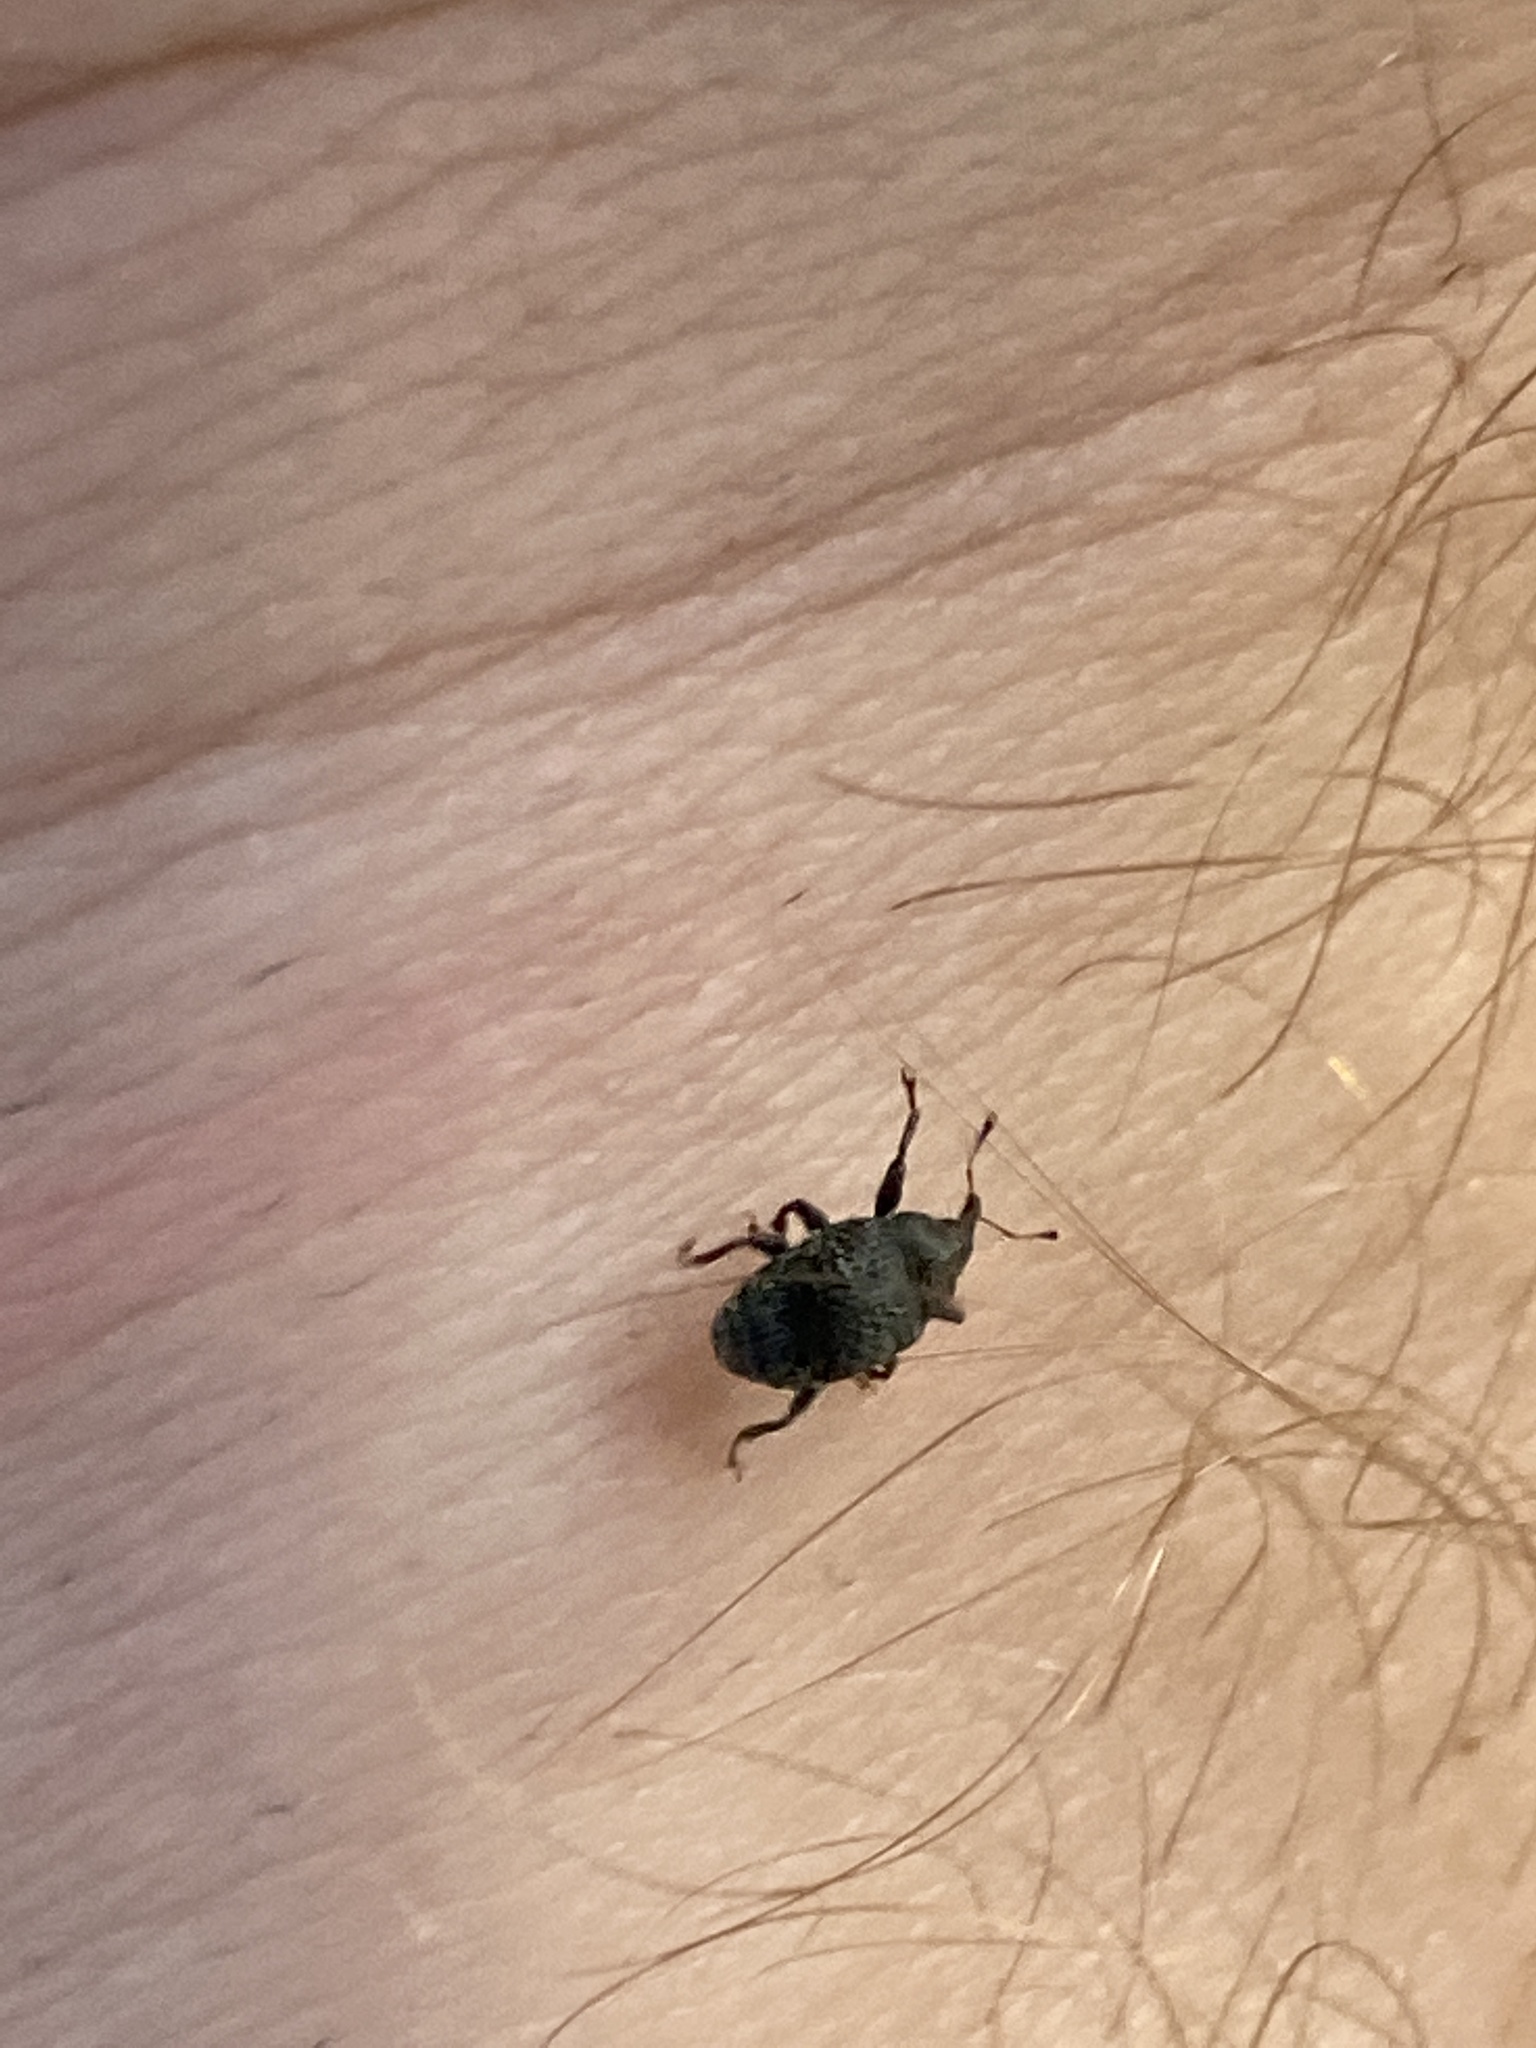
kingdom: Animalia
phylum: Arthropoda
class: Insecta
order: Coleoptera
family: Curculionidae
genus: Rhyssomatus
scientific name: Rhyssomatus lineaticollis
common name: Milkweed stem weevil
